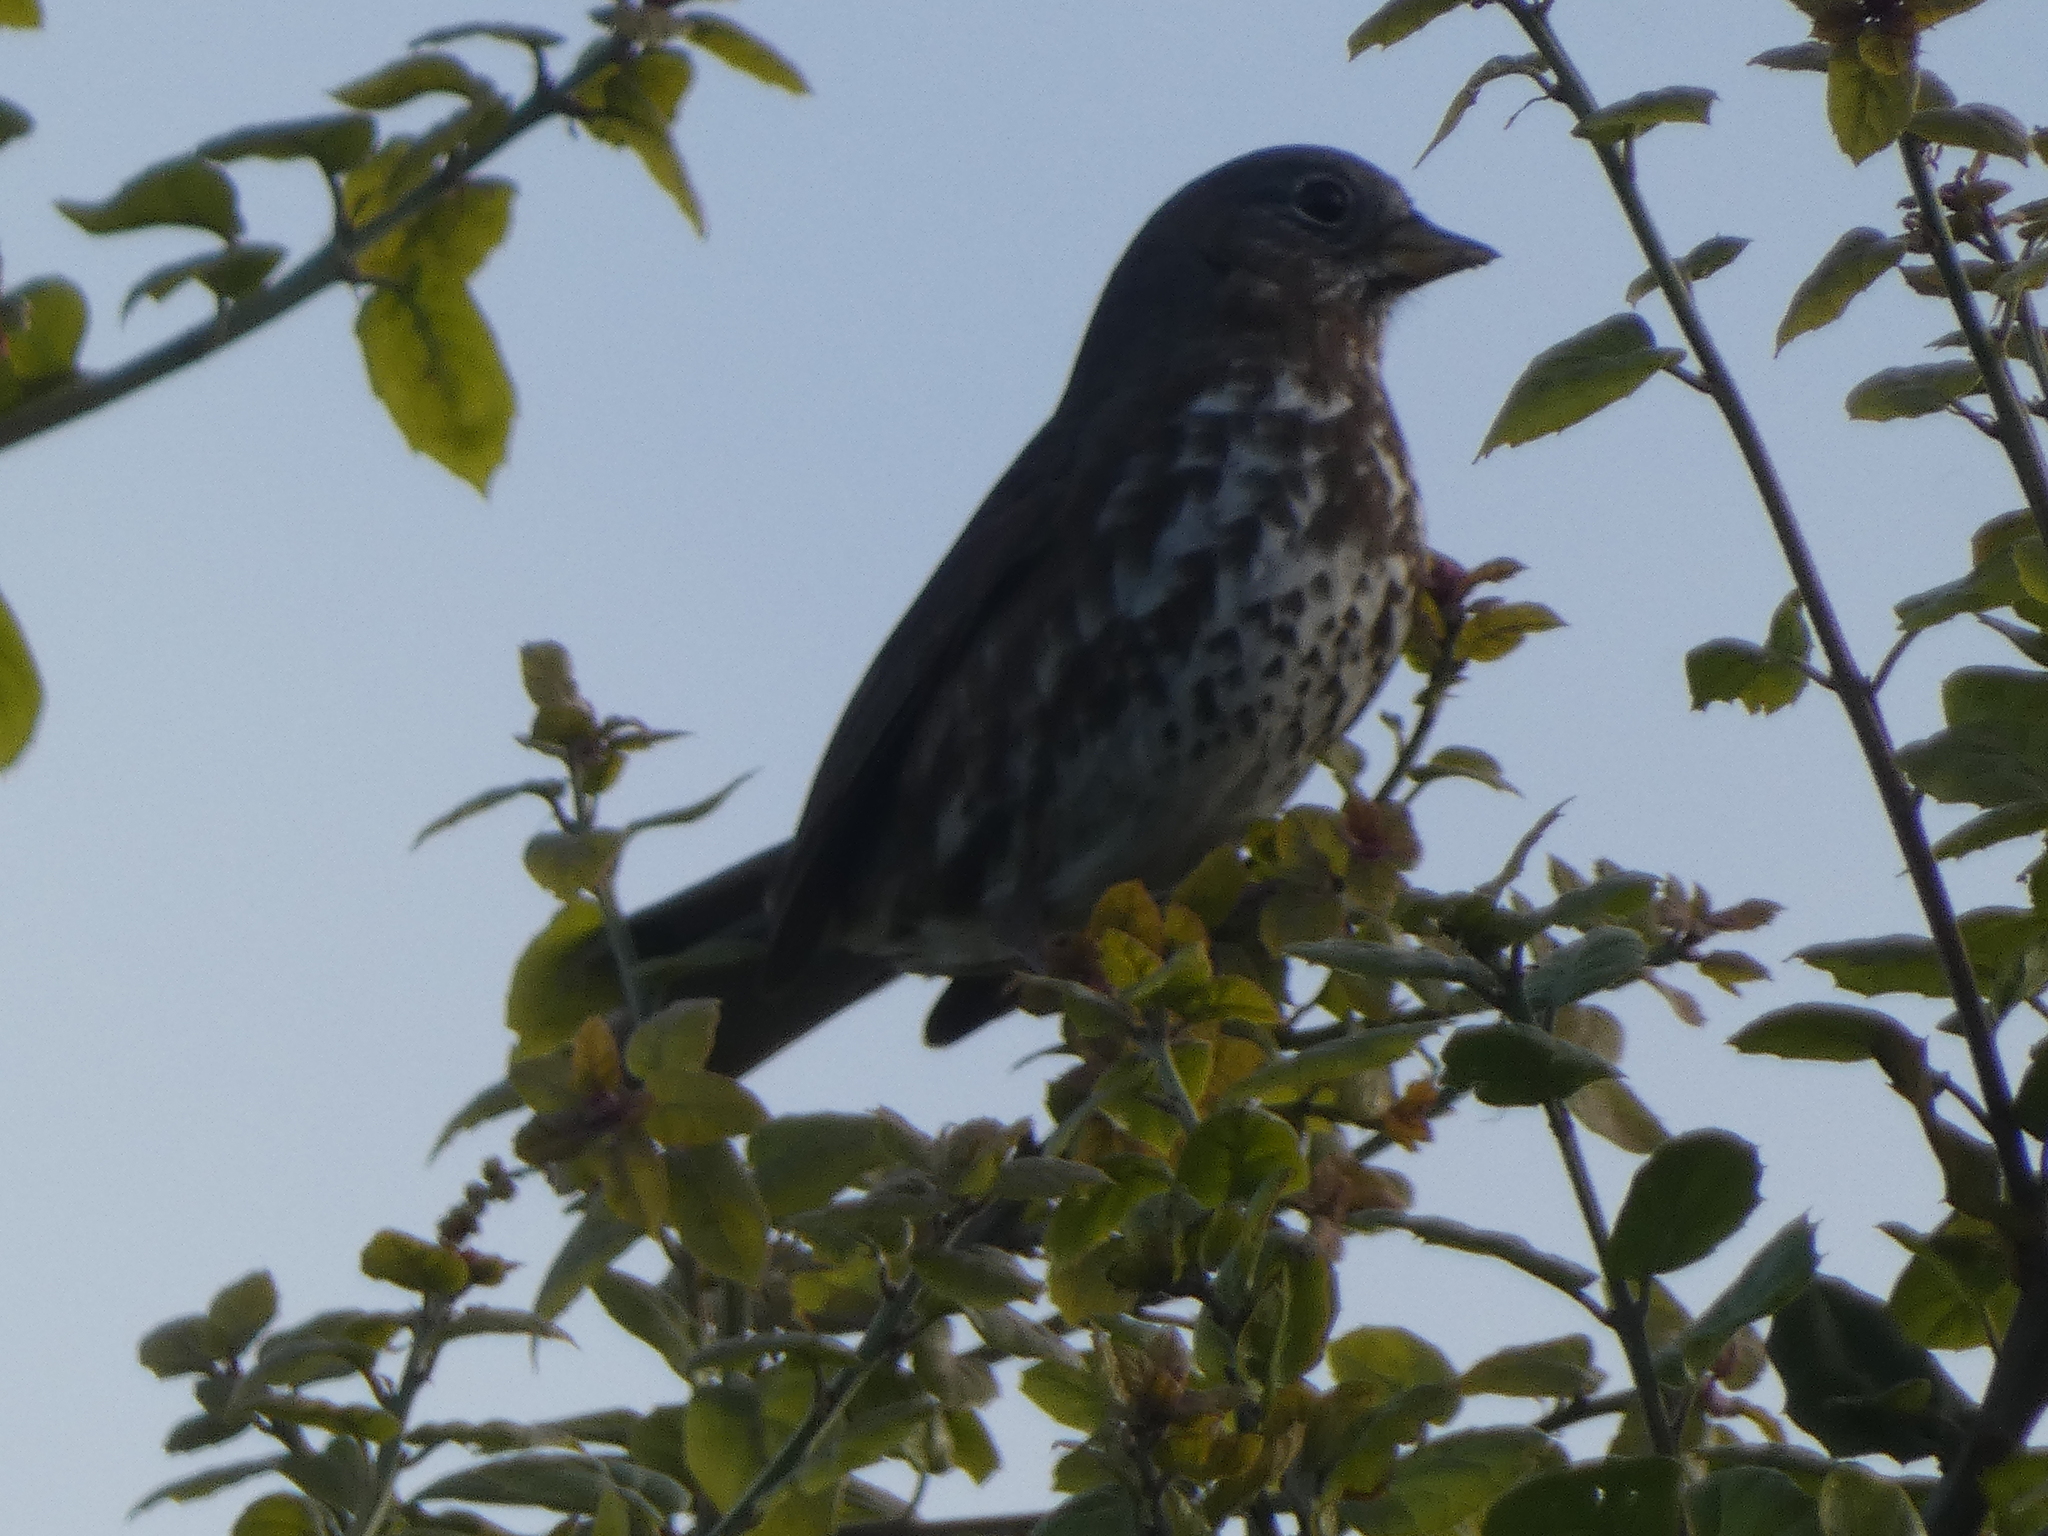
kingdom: Animalia
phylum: Chordata
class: Aves
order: Passeriformes
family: Passerellidae
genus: Passerella
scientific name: Passerella iliaca
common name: Fox sparrow
